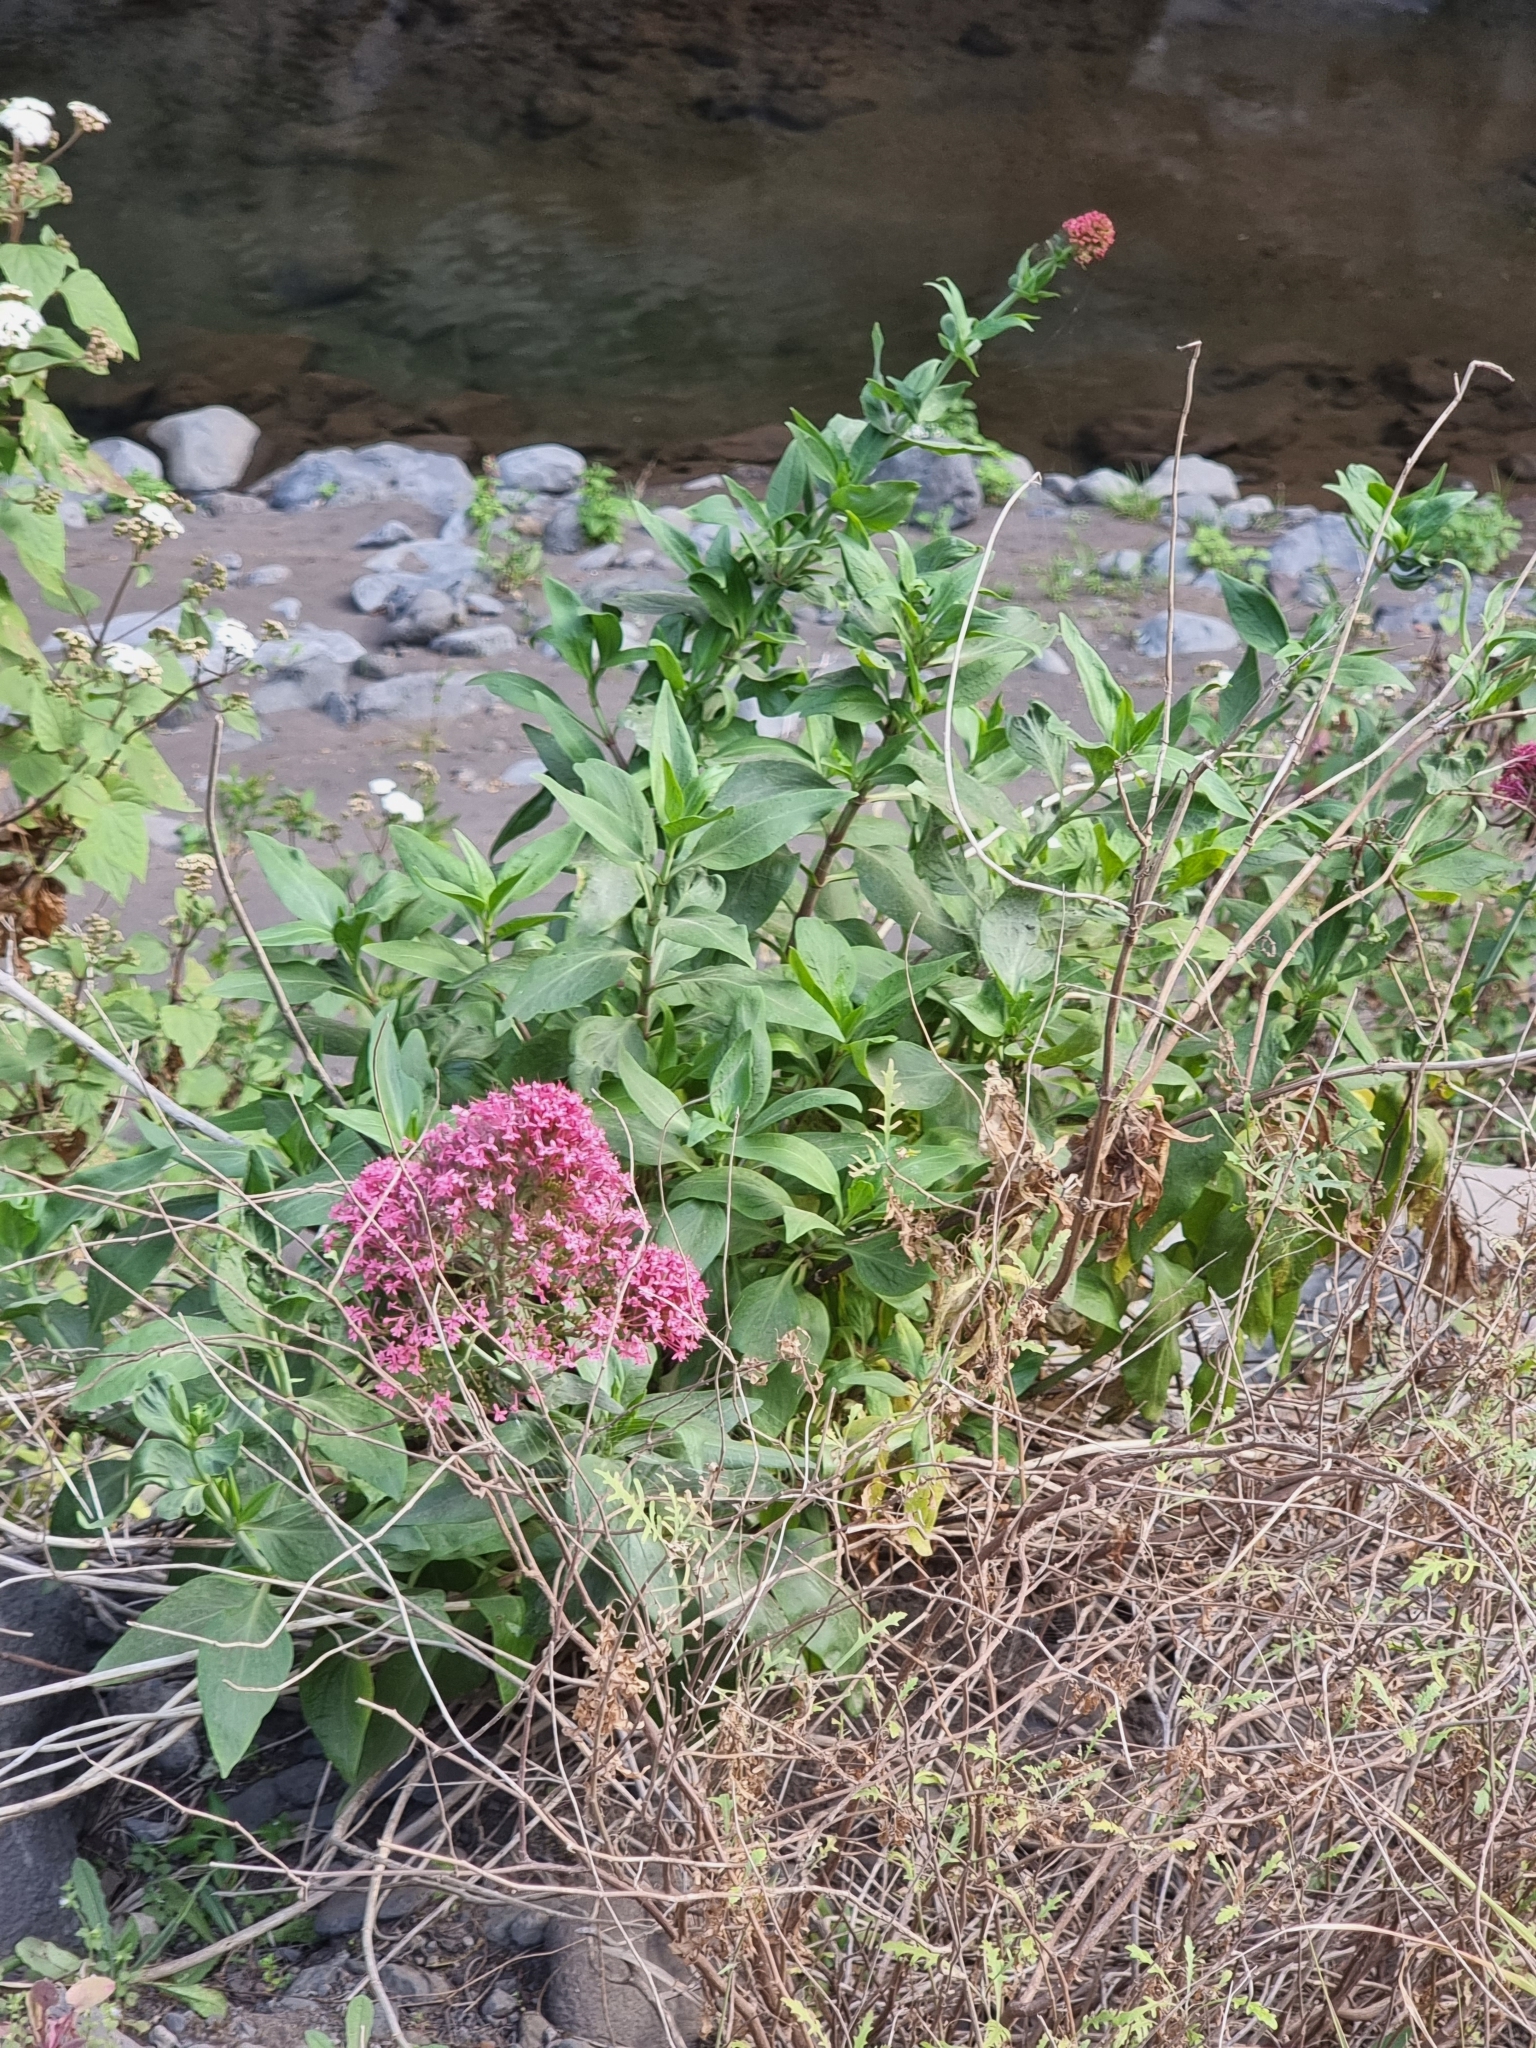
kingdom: Plantae
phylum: Tracheophyta
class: Magnoliopsida
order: Dipsacales
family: Caprifoliaceae
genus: Centranthus
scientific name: Centranthus ruber
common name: Red valerian
